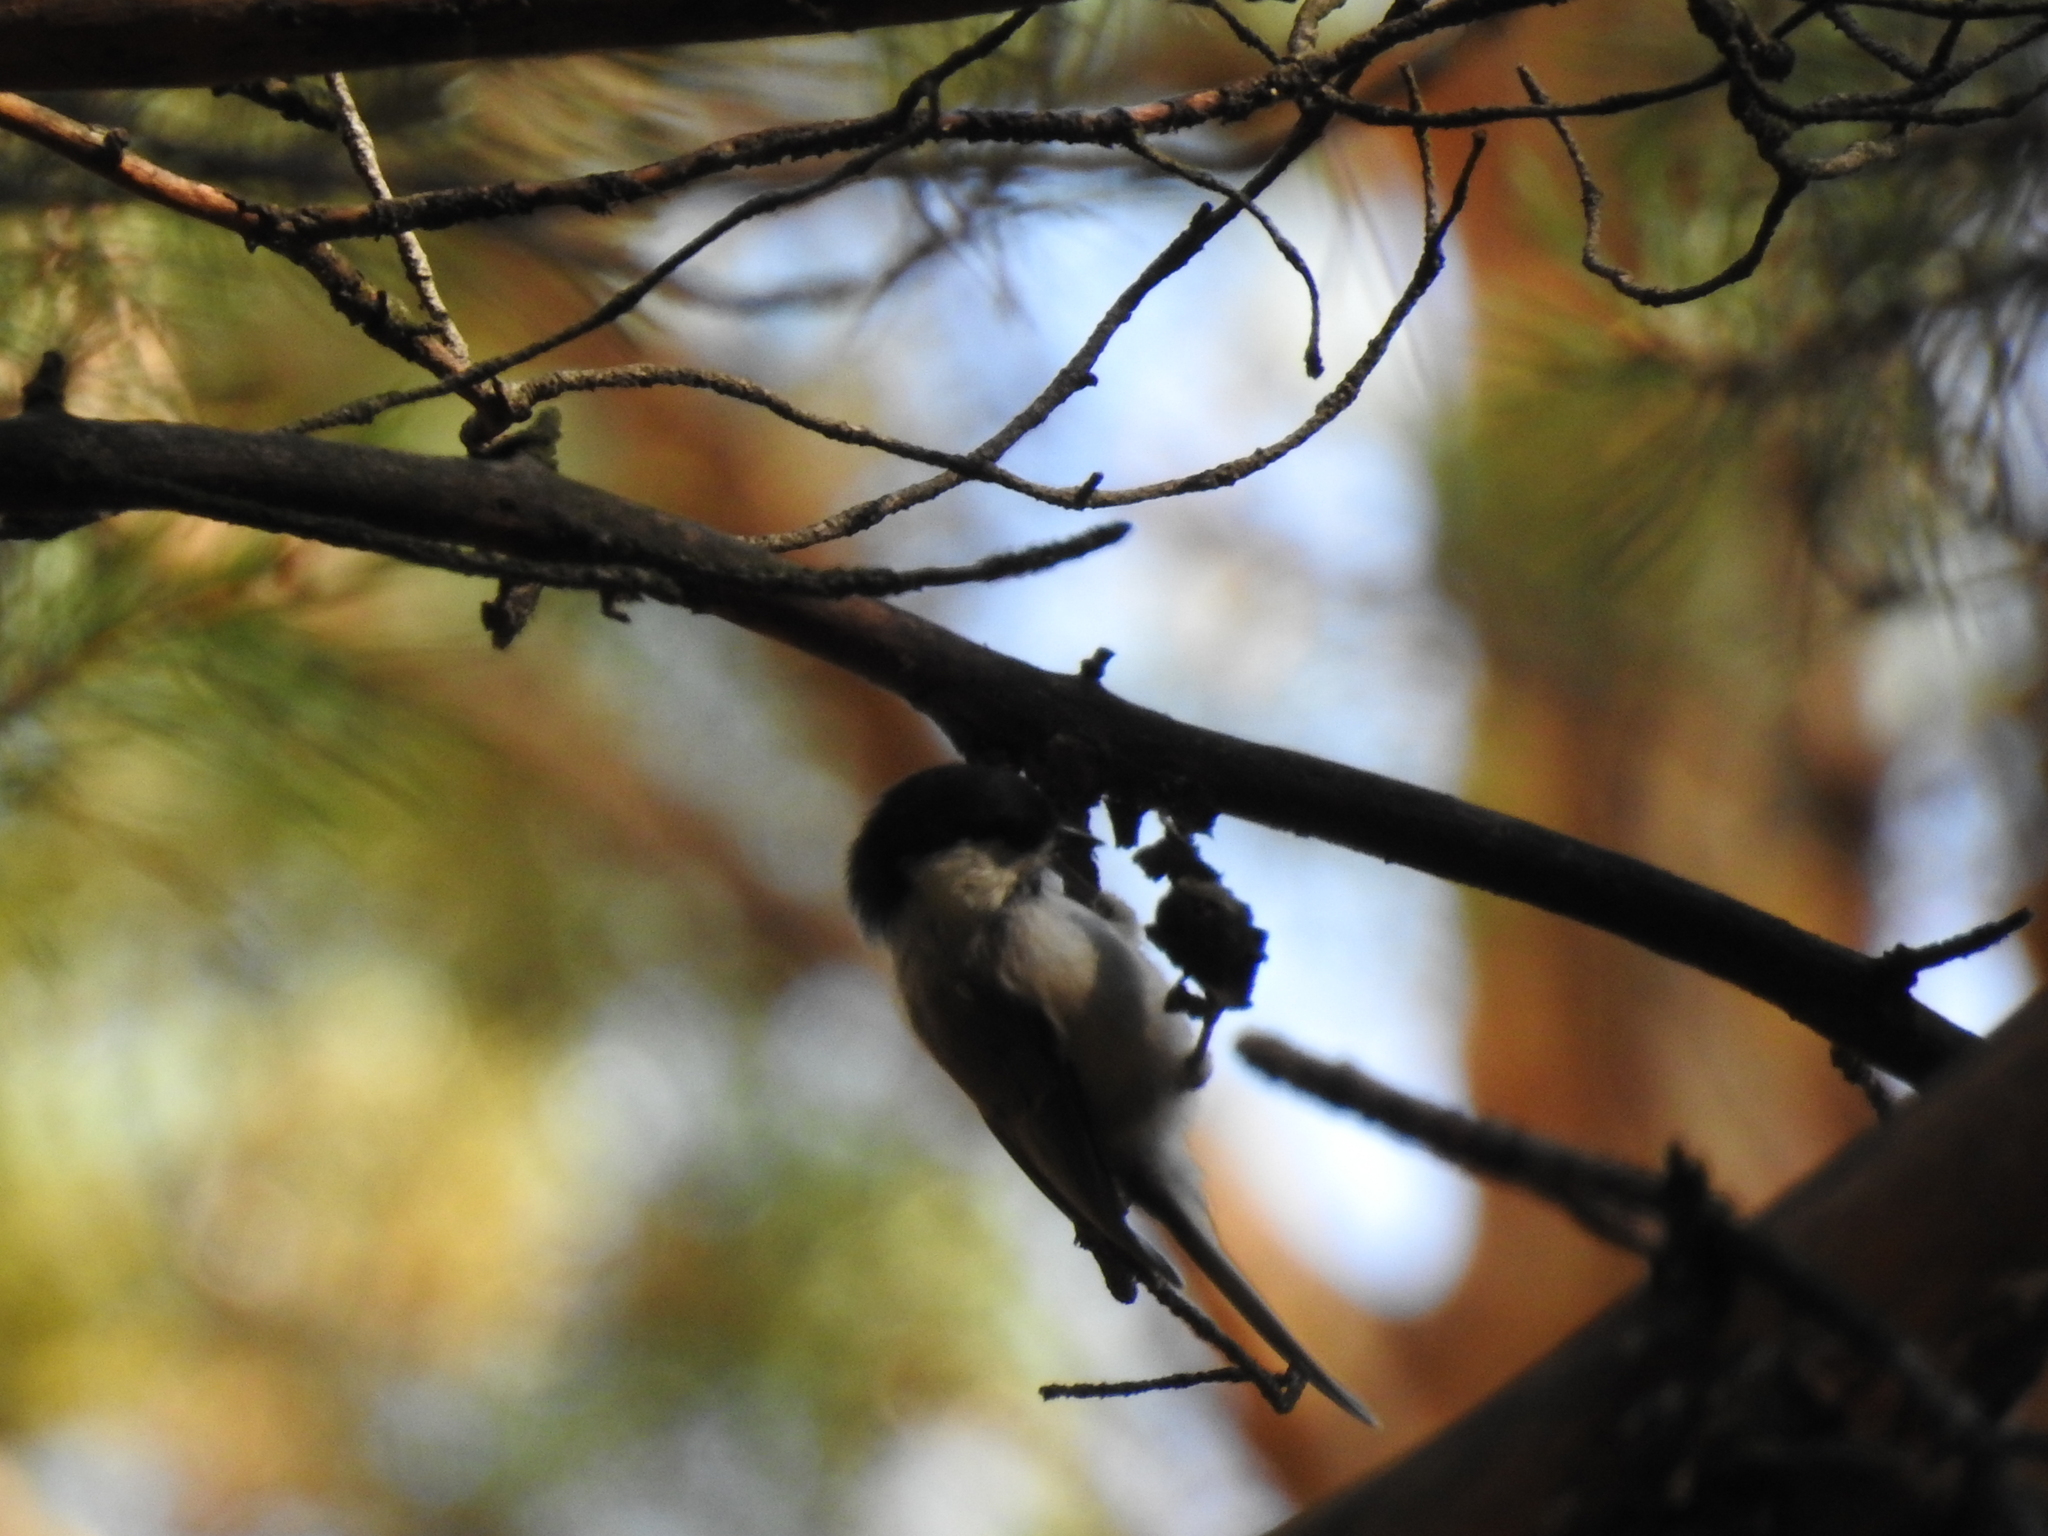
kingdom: Animalia
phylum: Chordata
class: Aves
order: Passeriformes
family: Paridae
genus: Poecile
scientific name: Poecile montanus
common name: Willow tit
